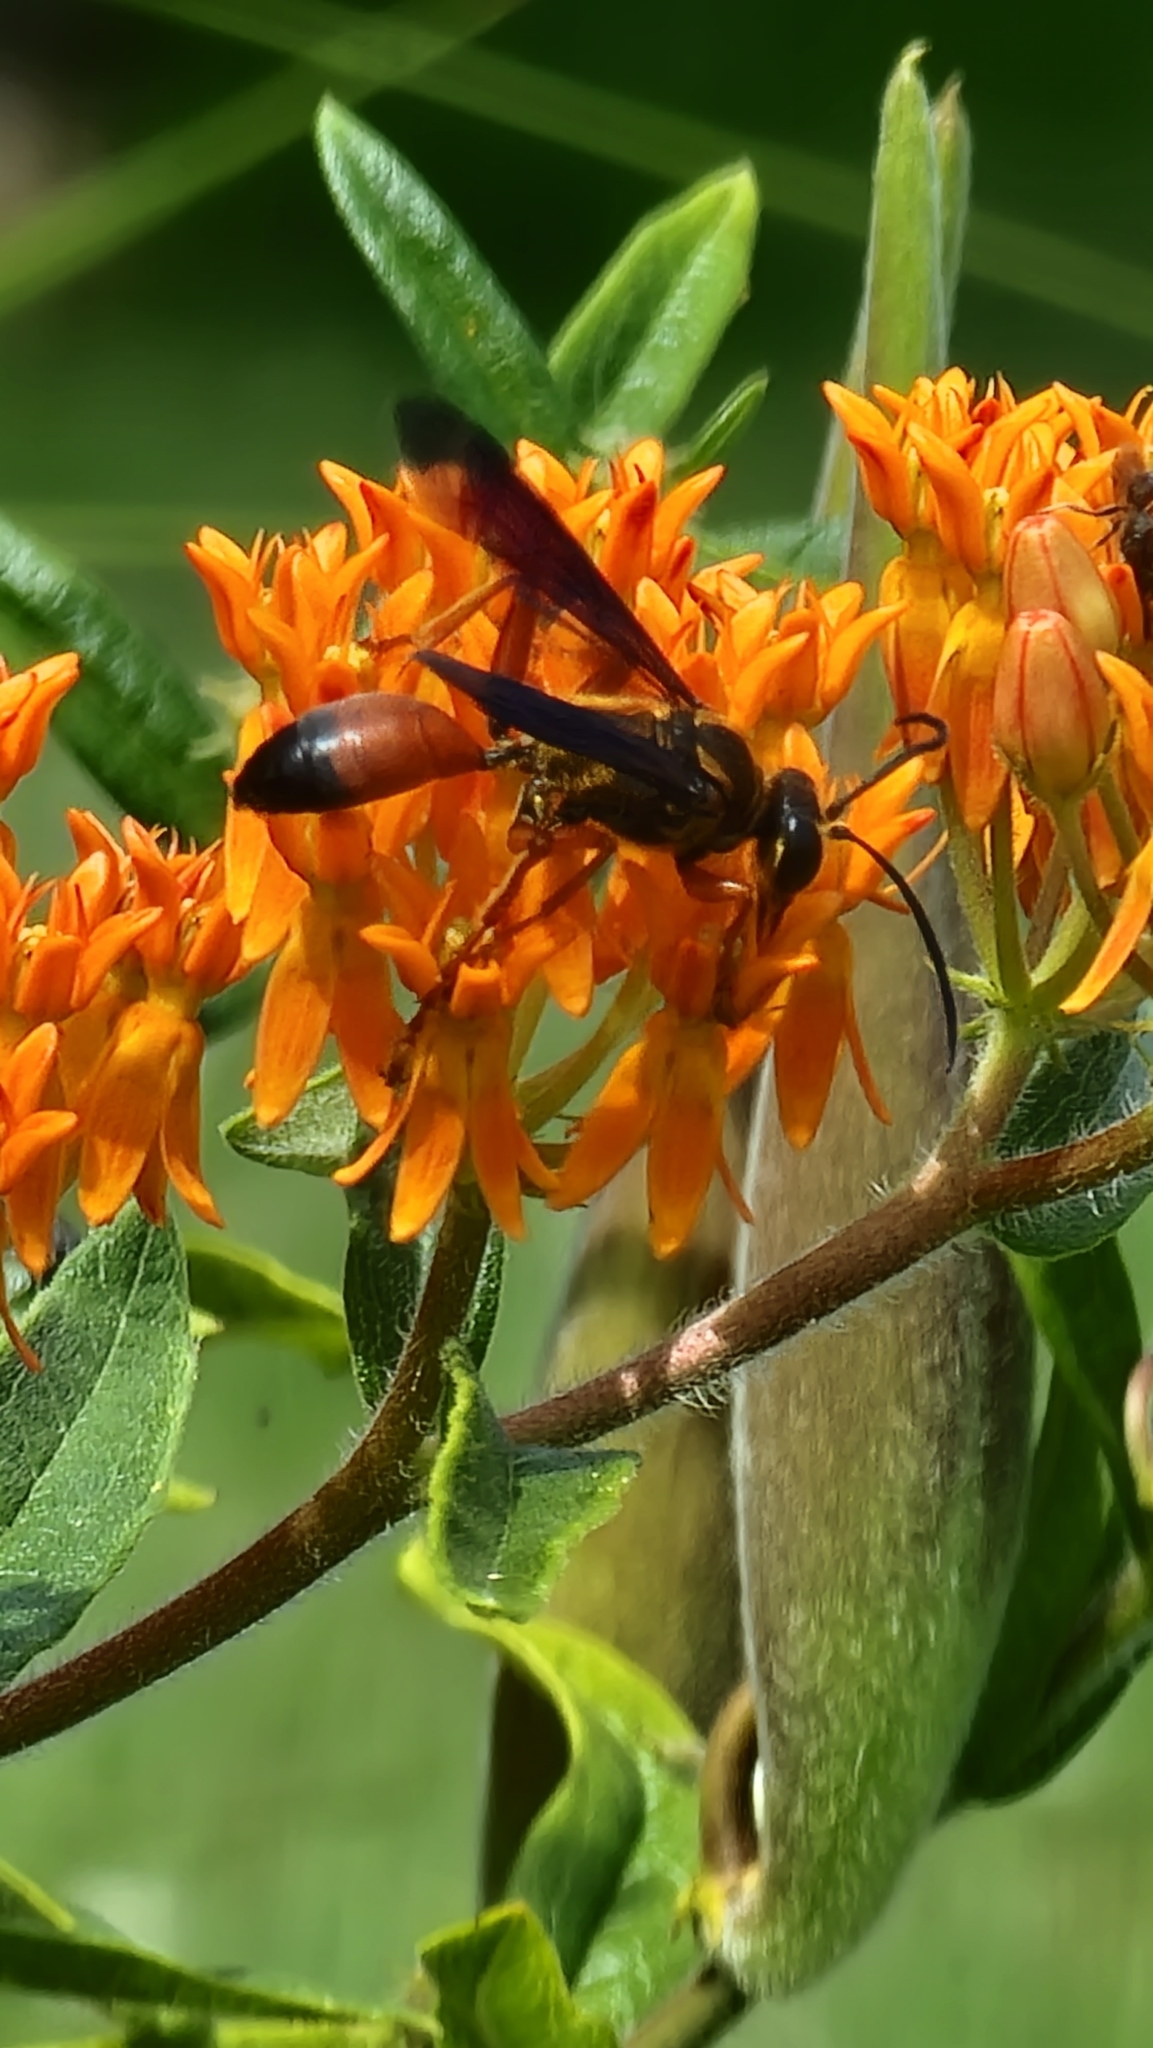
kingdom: Animalia
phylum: Arthropoda
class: Insecta
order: Hymenoptera
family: Sphecidae
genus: Sphex
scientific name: Sphex ichneumoneus
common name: Great golden digger wasp
